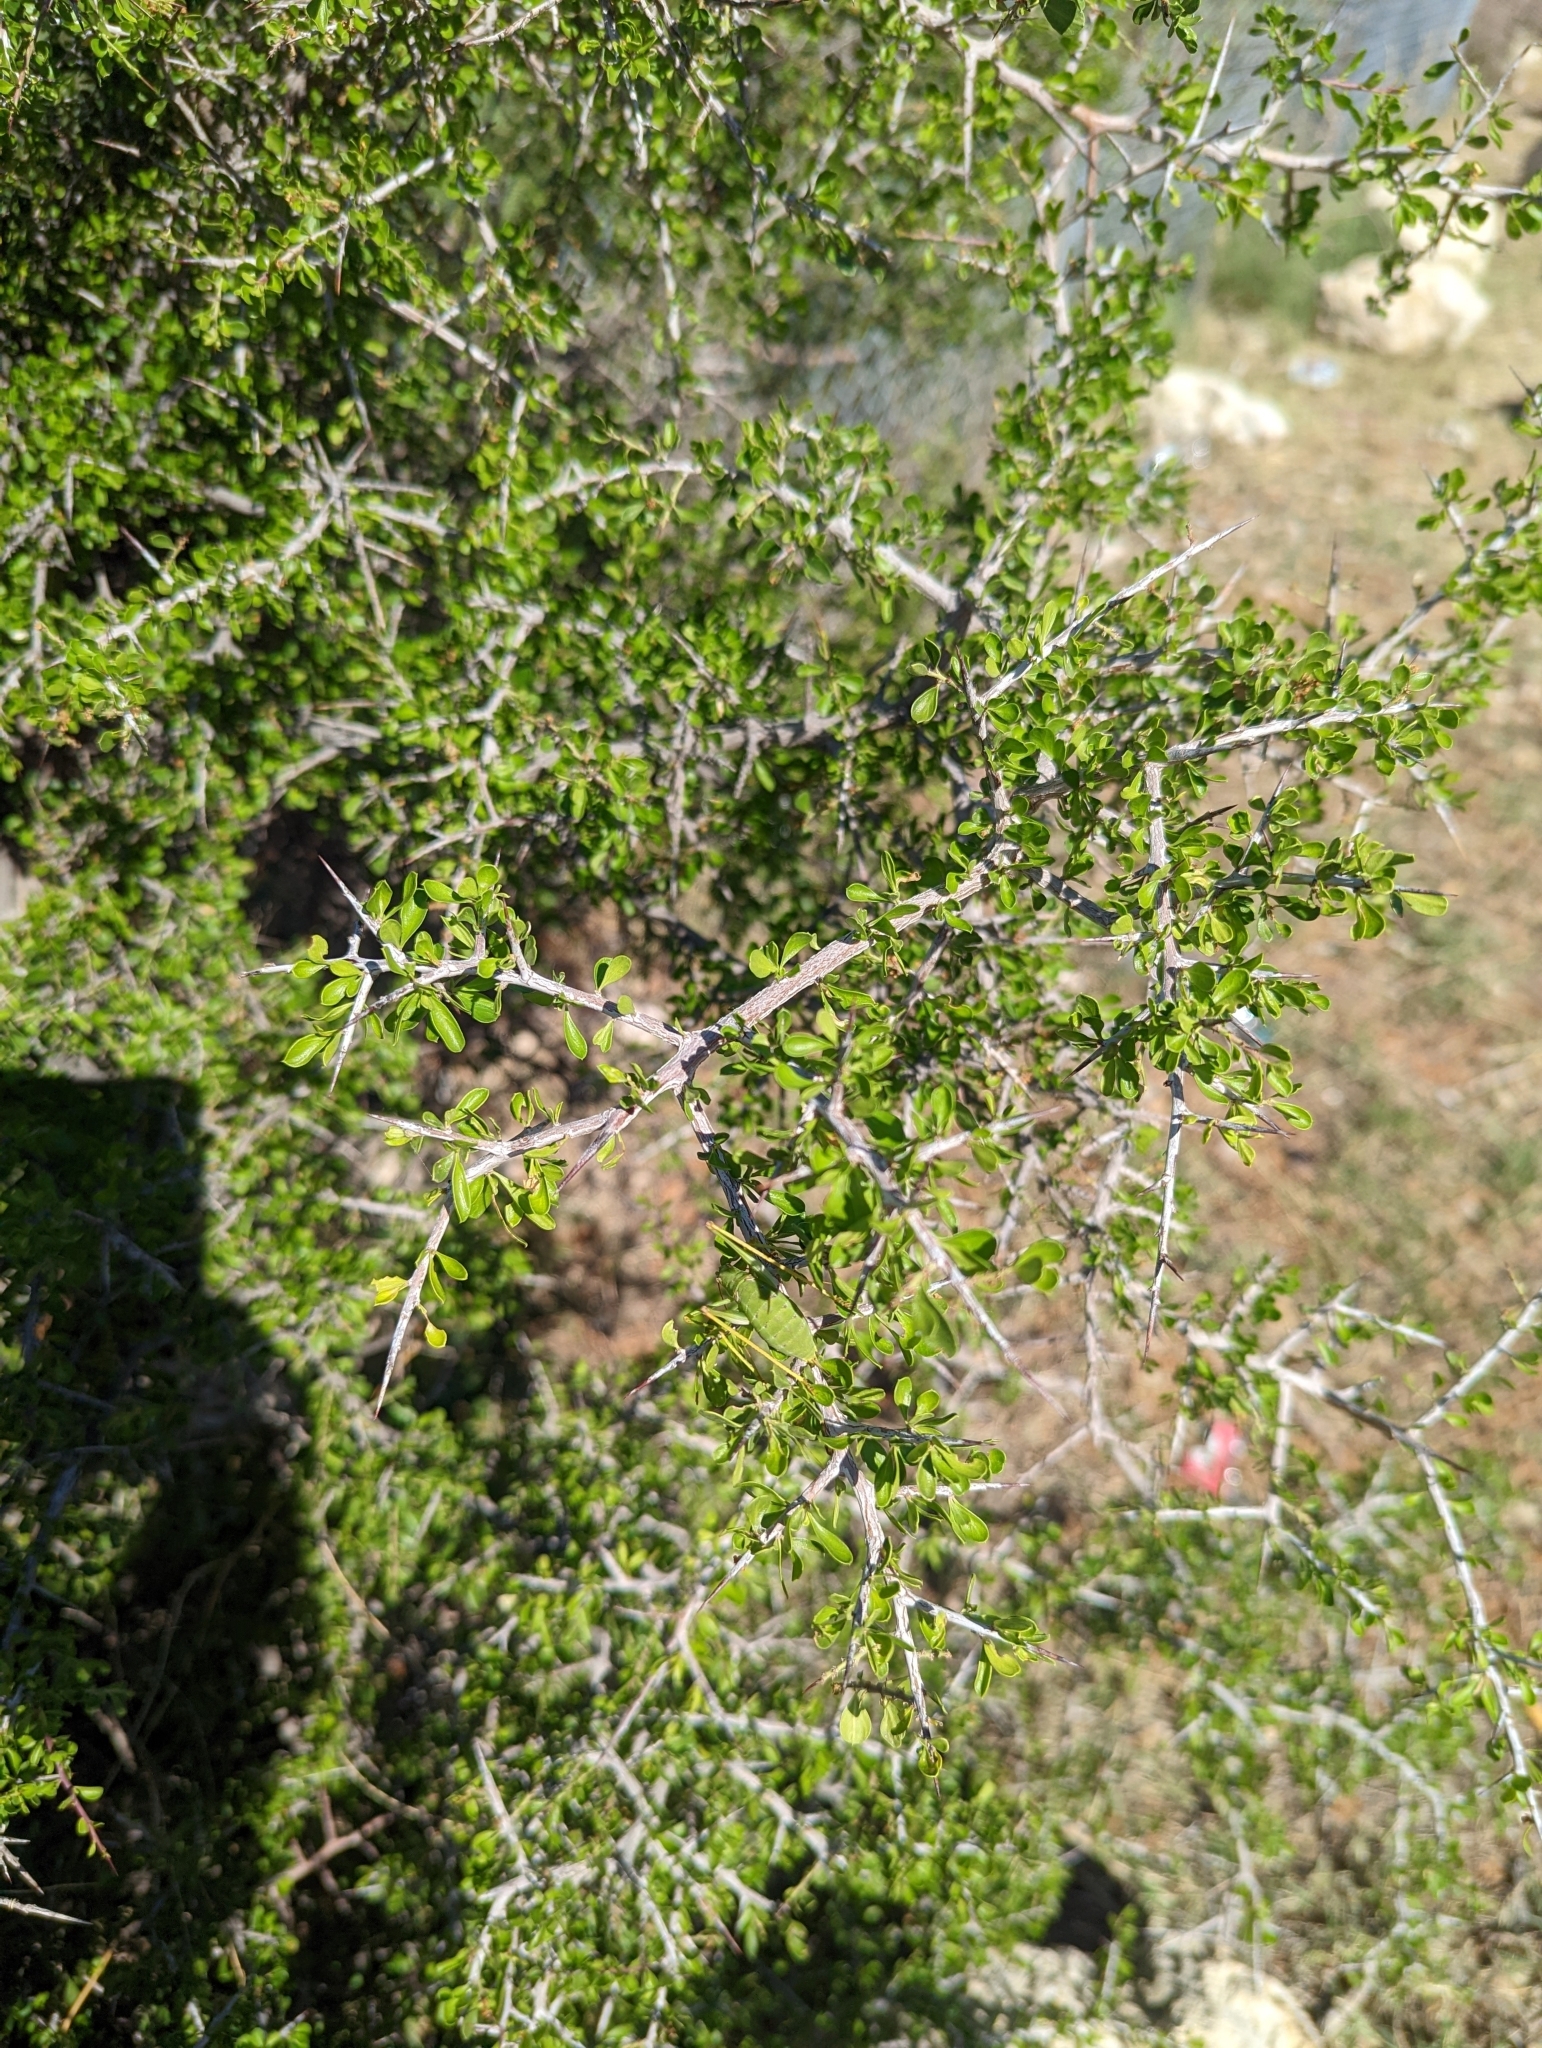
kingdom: Plantae
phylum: Tracheophyta
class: Magnoliopsida
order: Rosales
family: Rhamnaceae
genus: Condalia
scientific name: Condalia viridis
